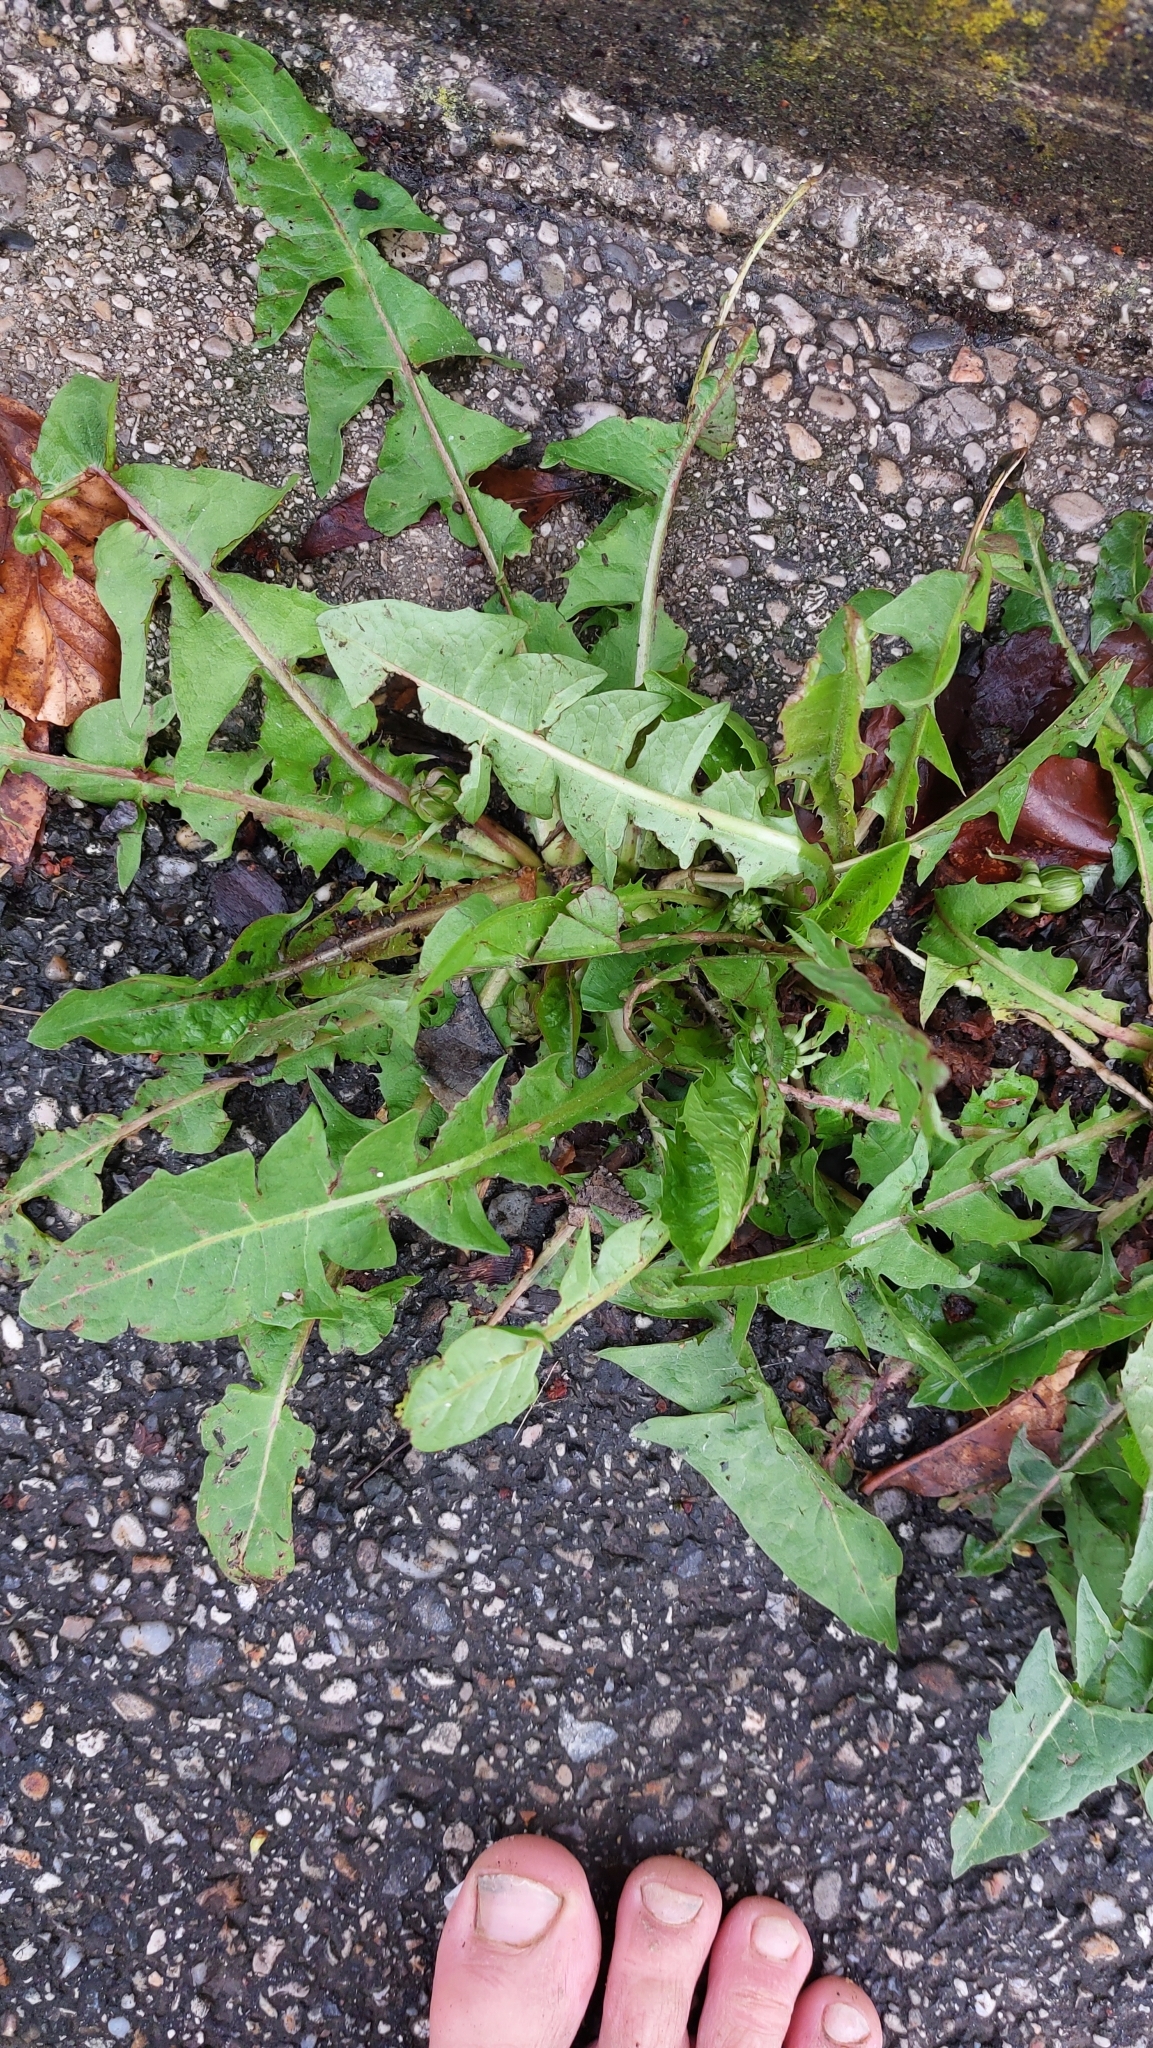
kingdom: Plantae
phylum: Tracheophyta
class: Magnoliopsida
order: Asterales
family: Asteraceae
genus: Taraxacum
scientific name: Taraxacum
